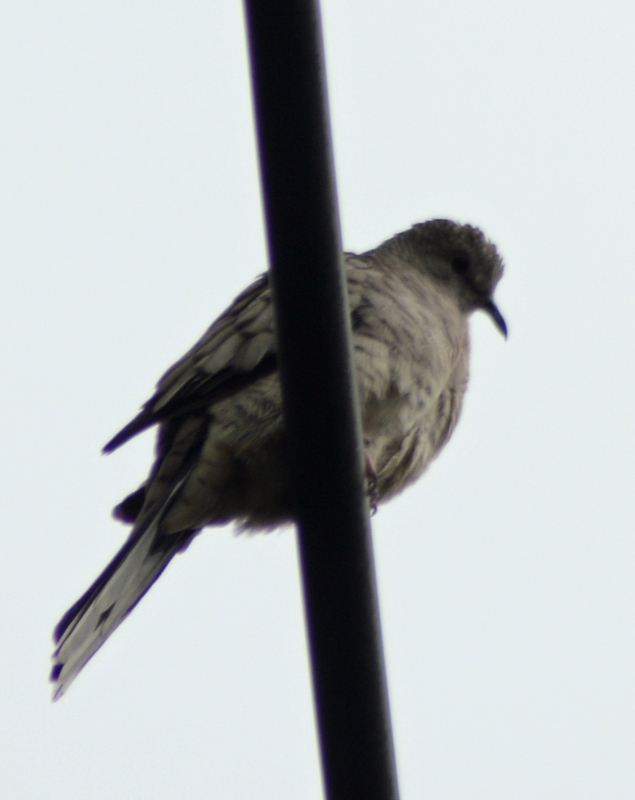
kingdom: Animalia
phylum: Chordata
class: Aves
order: Columbiformes
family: Columbidae
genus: Columbina
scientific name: Columbina inca
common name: Inca dove
